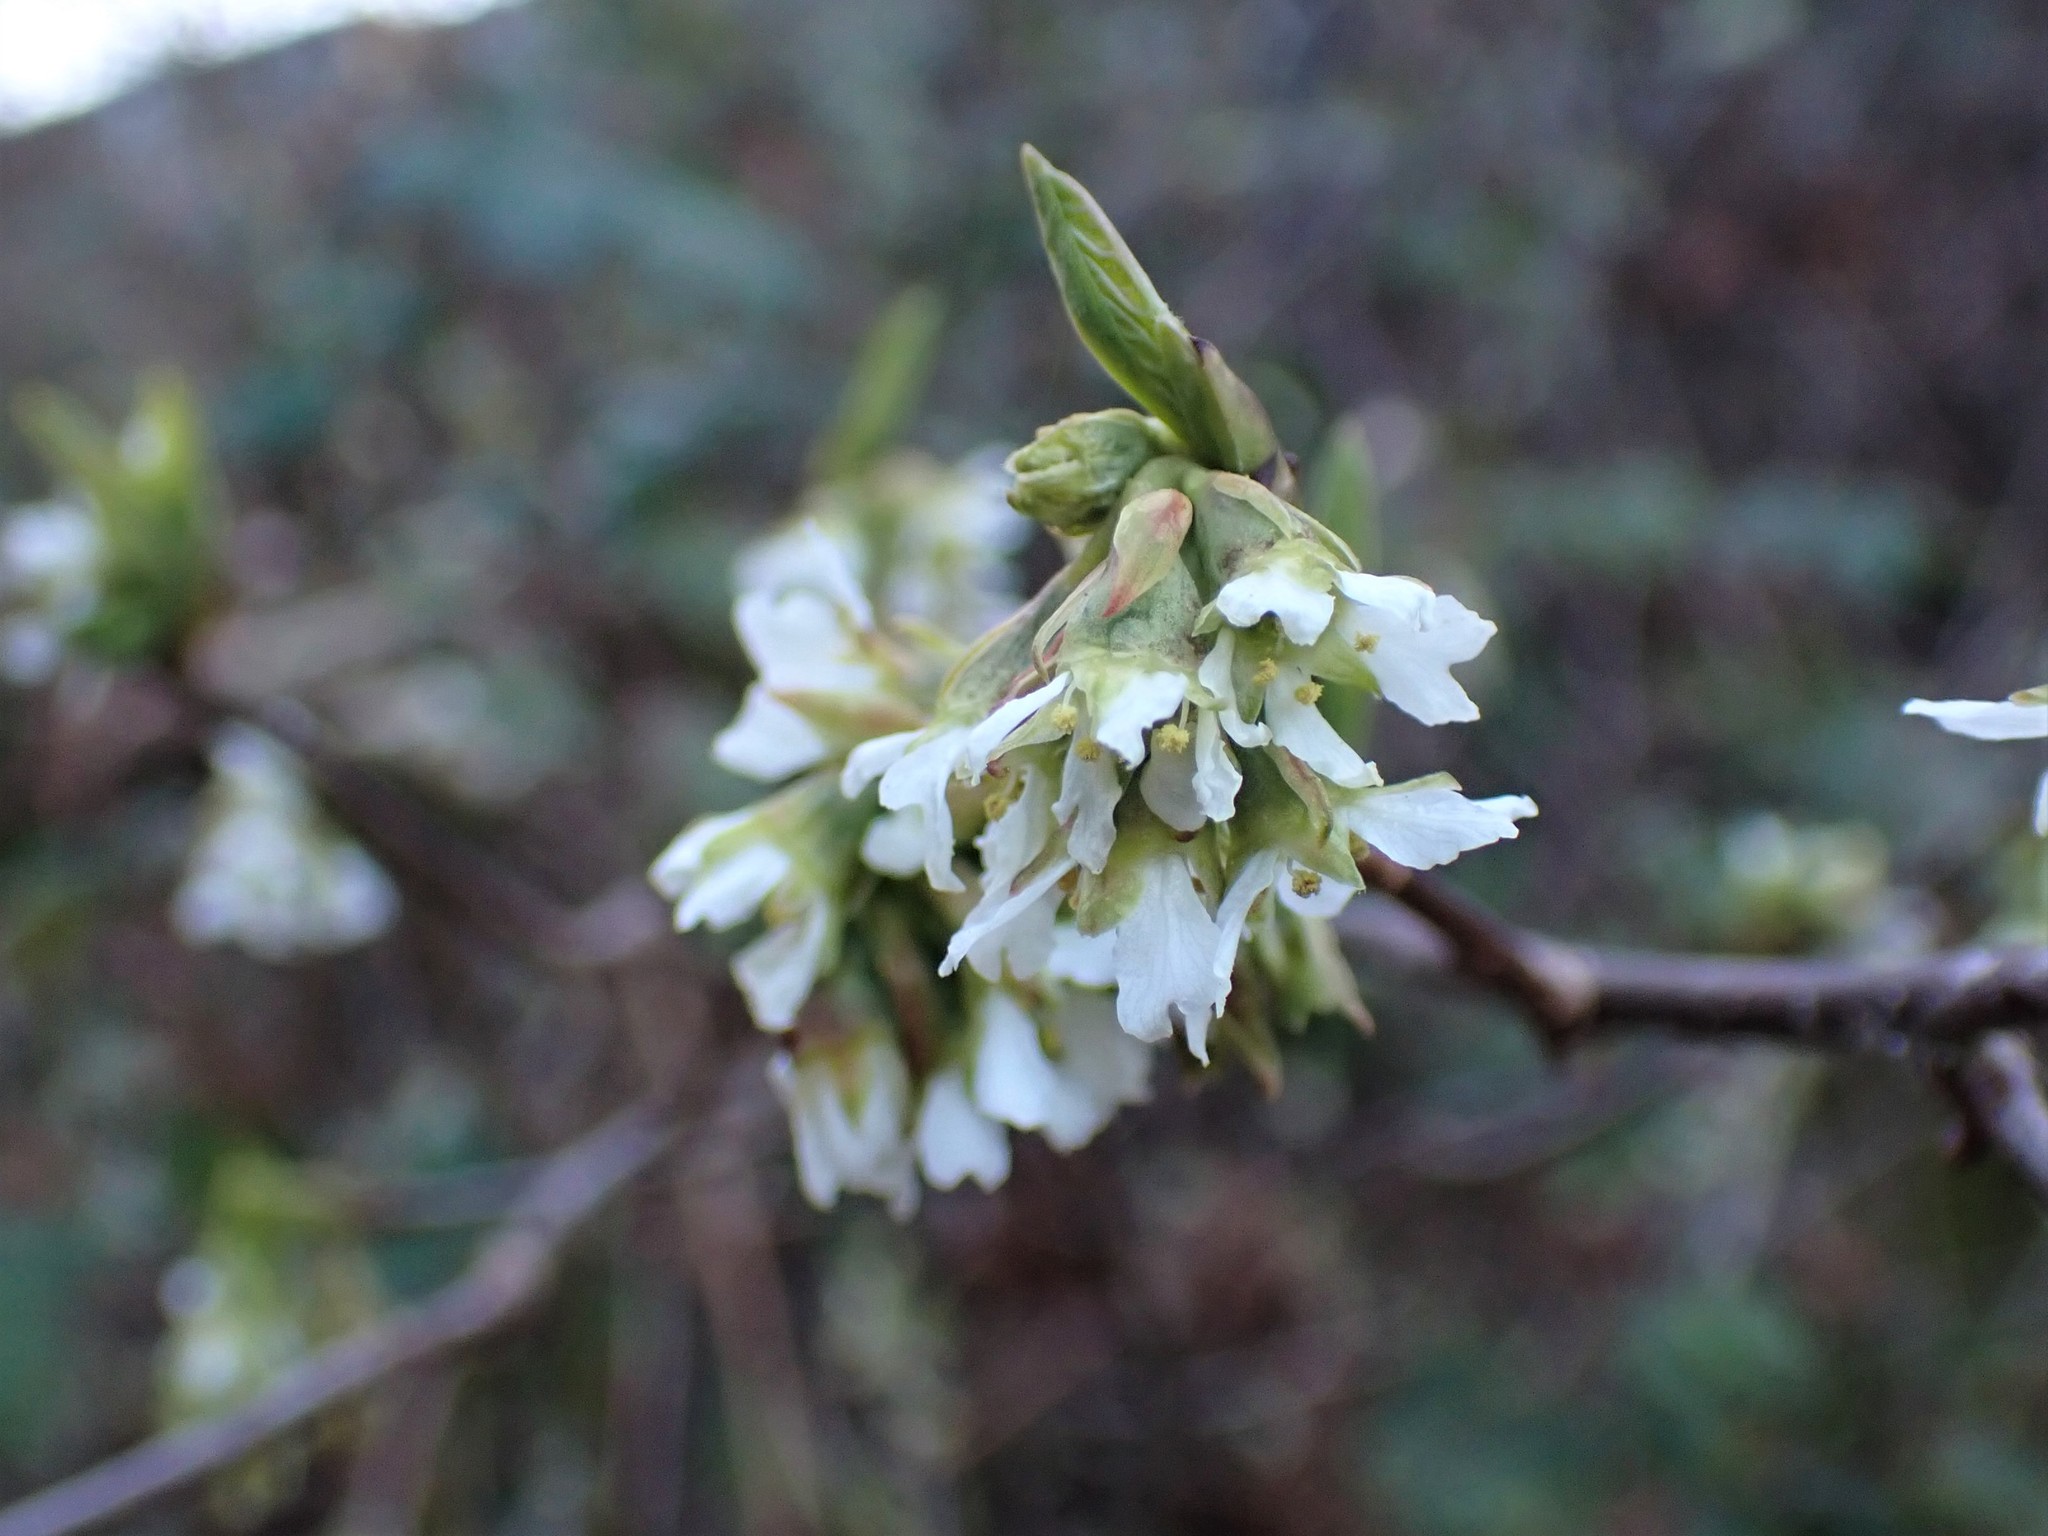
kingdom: Plantae
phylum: Tracheophyta
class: Magnoliopsida
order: Rosales
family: Rosaceae
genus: Oemleria
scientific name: Oemleria cerasiformis
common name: Osoberry
